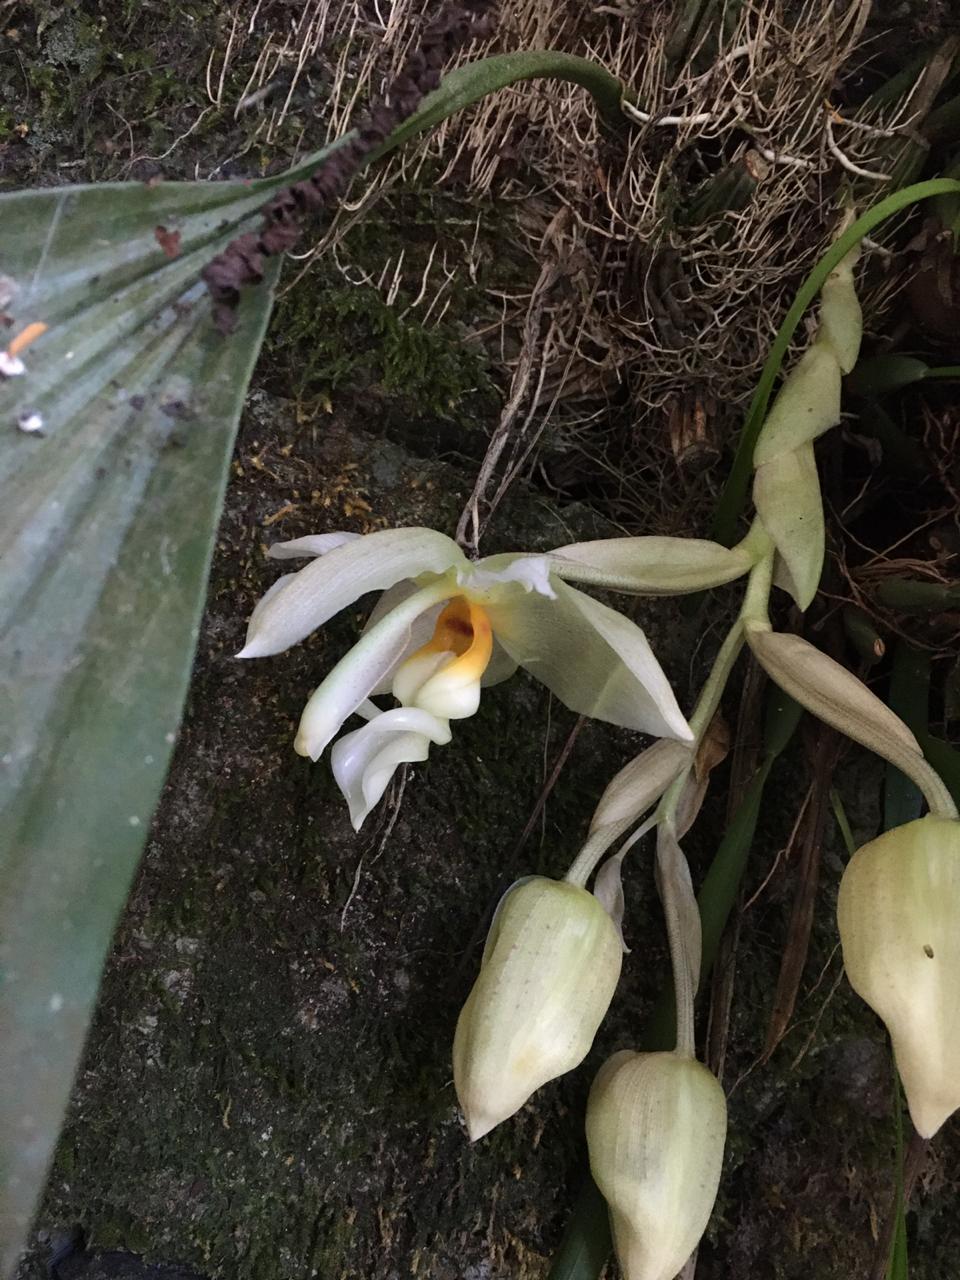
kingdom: Plantae
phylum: Tracheophyta
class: Liliopsida
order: Asparagales
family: Orchidaceae
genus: Stanhopea
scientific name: Stanhopea ruckeri
